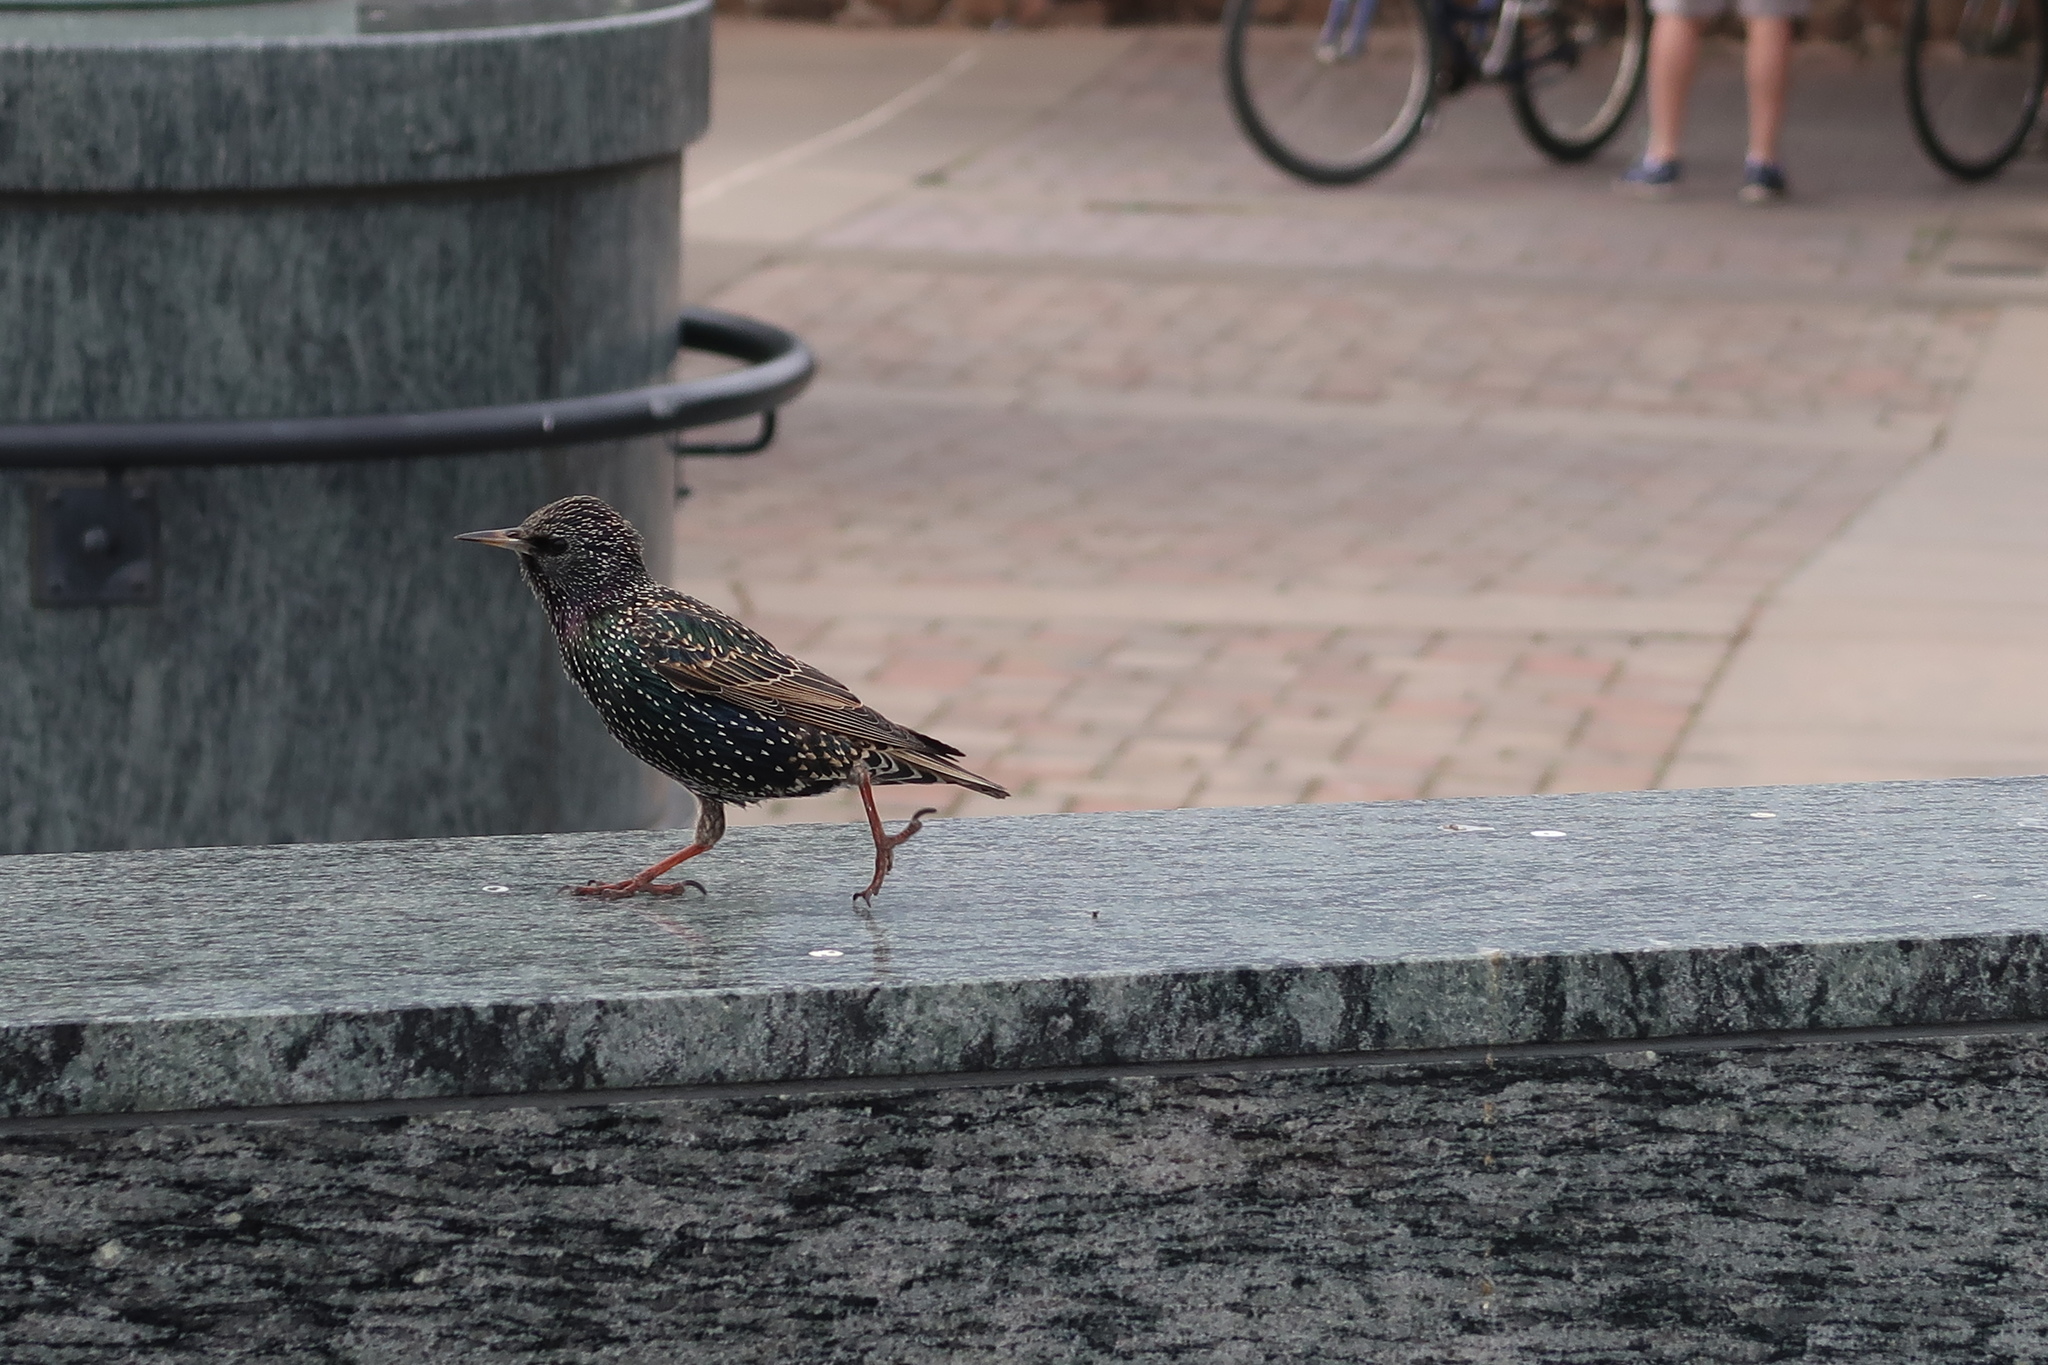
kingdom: Animalia
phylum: Chordata
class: Aves
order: Passeriformes
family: Sturnidae
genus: Sturnus
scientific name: Sturnus vulgaris
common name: Common starling
